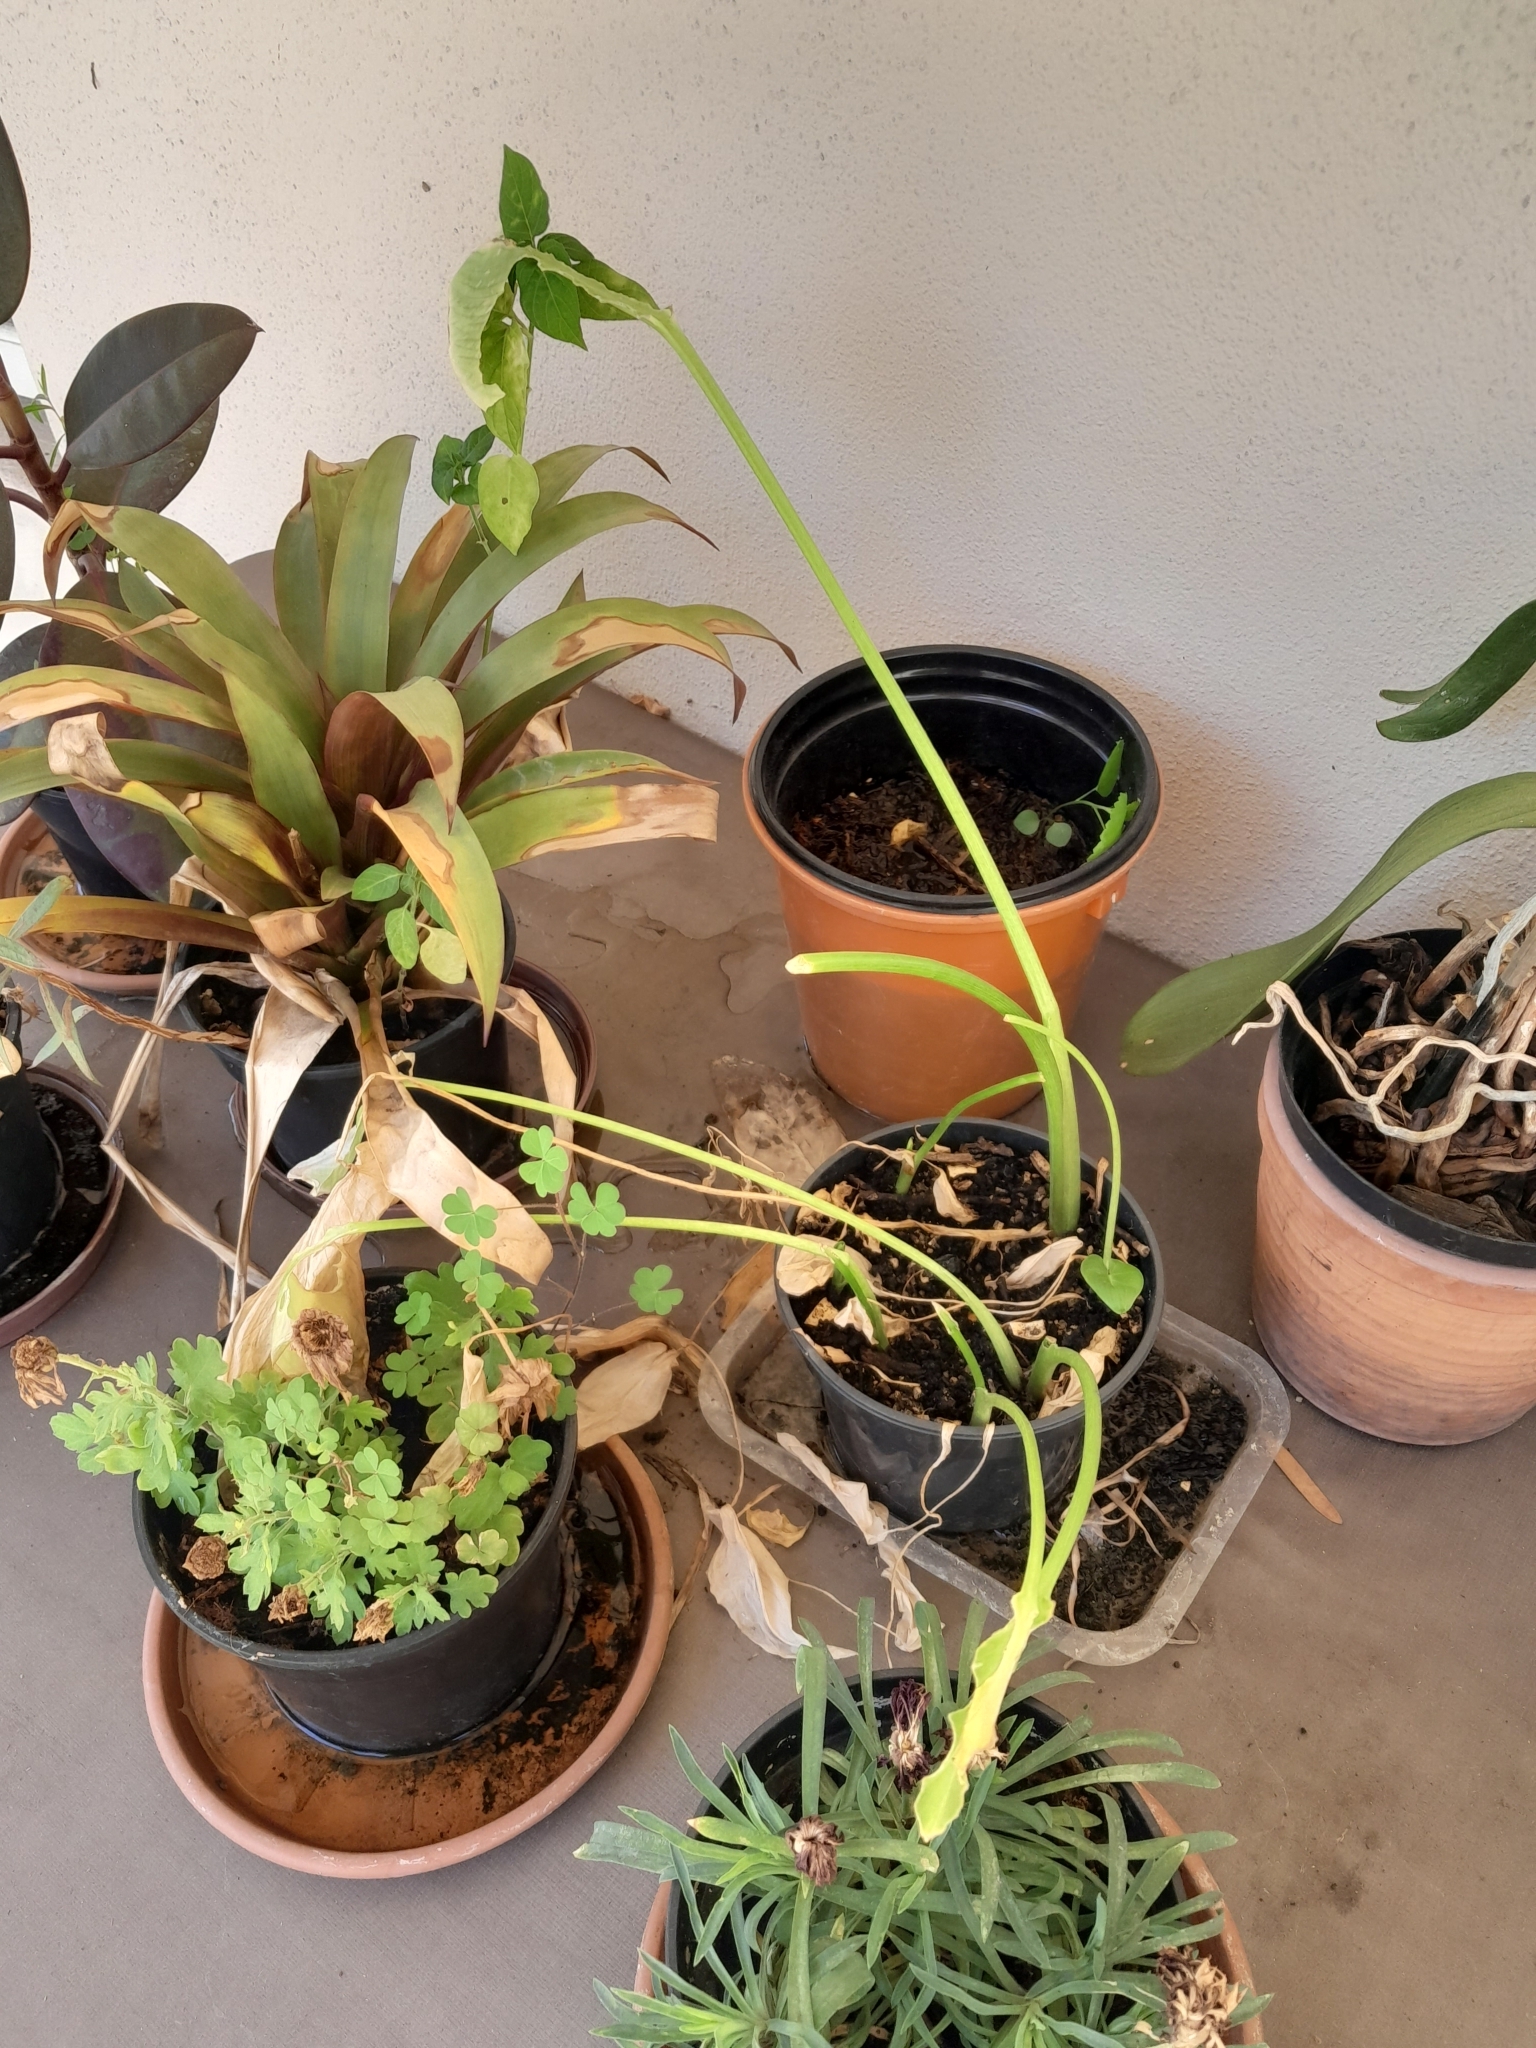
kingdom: Animalia
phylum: Arthropoda
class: Insecta
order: Lepidoptera
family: Sphingidae
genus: Hippotion
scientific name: Hippotion eson
